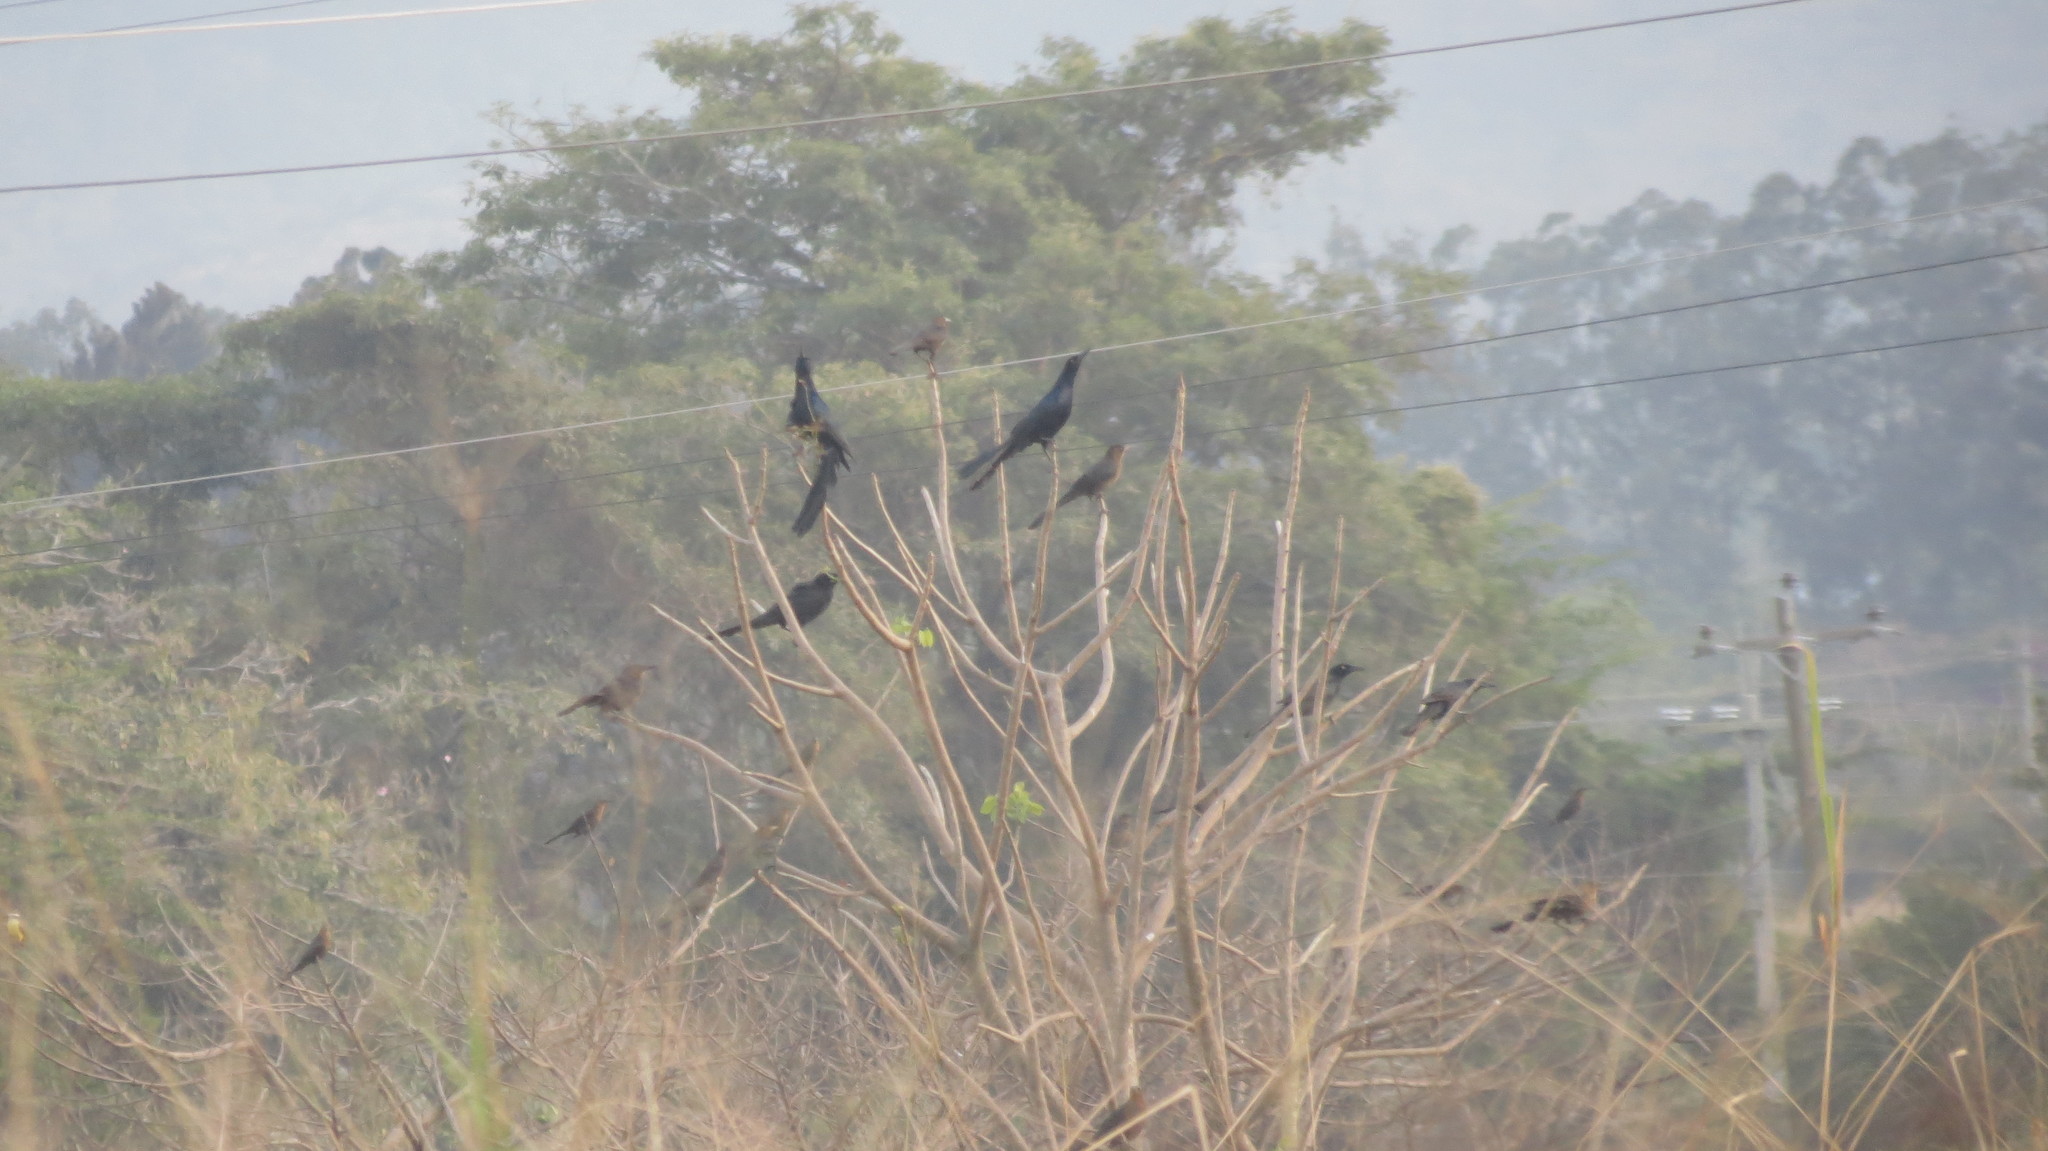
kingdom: Animalia
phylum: Chordata
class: Aves
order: Passeriformes
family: Icteridae
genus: Quiscalus
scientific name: Quiscalus mexicanus
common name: Great-tailed grackle
